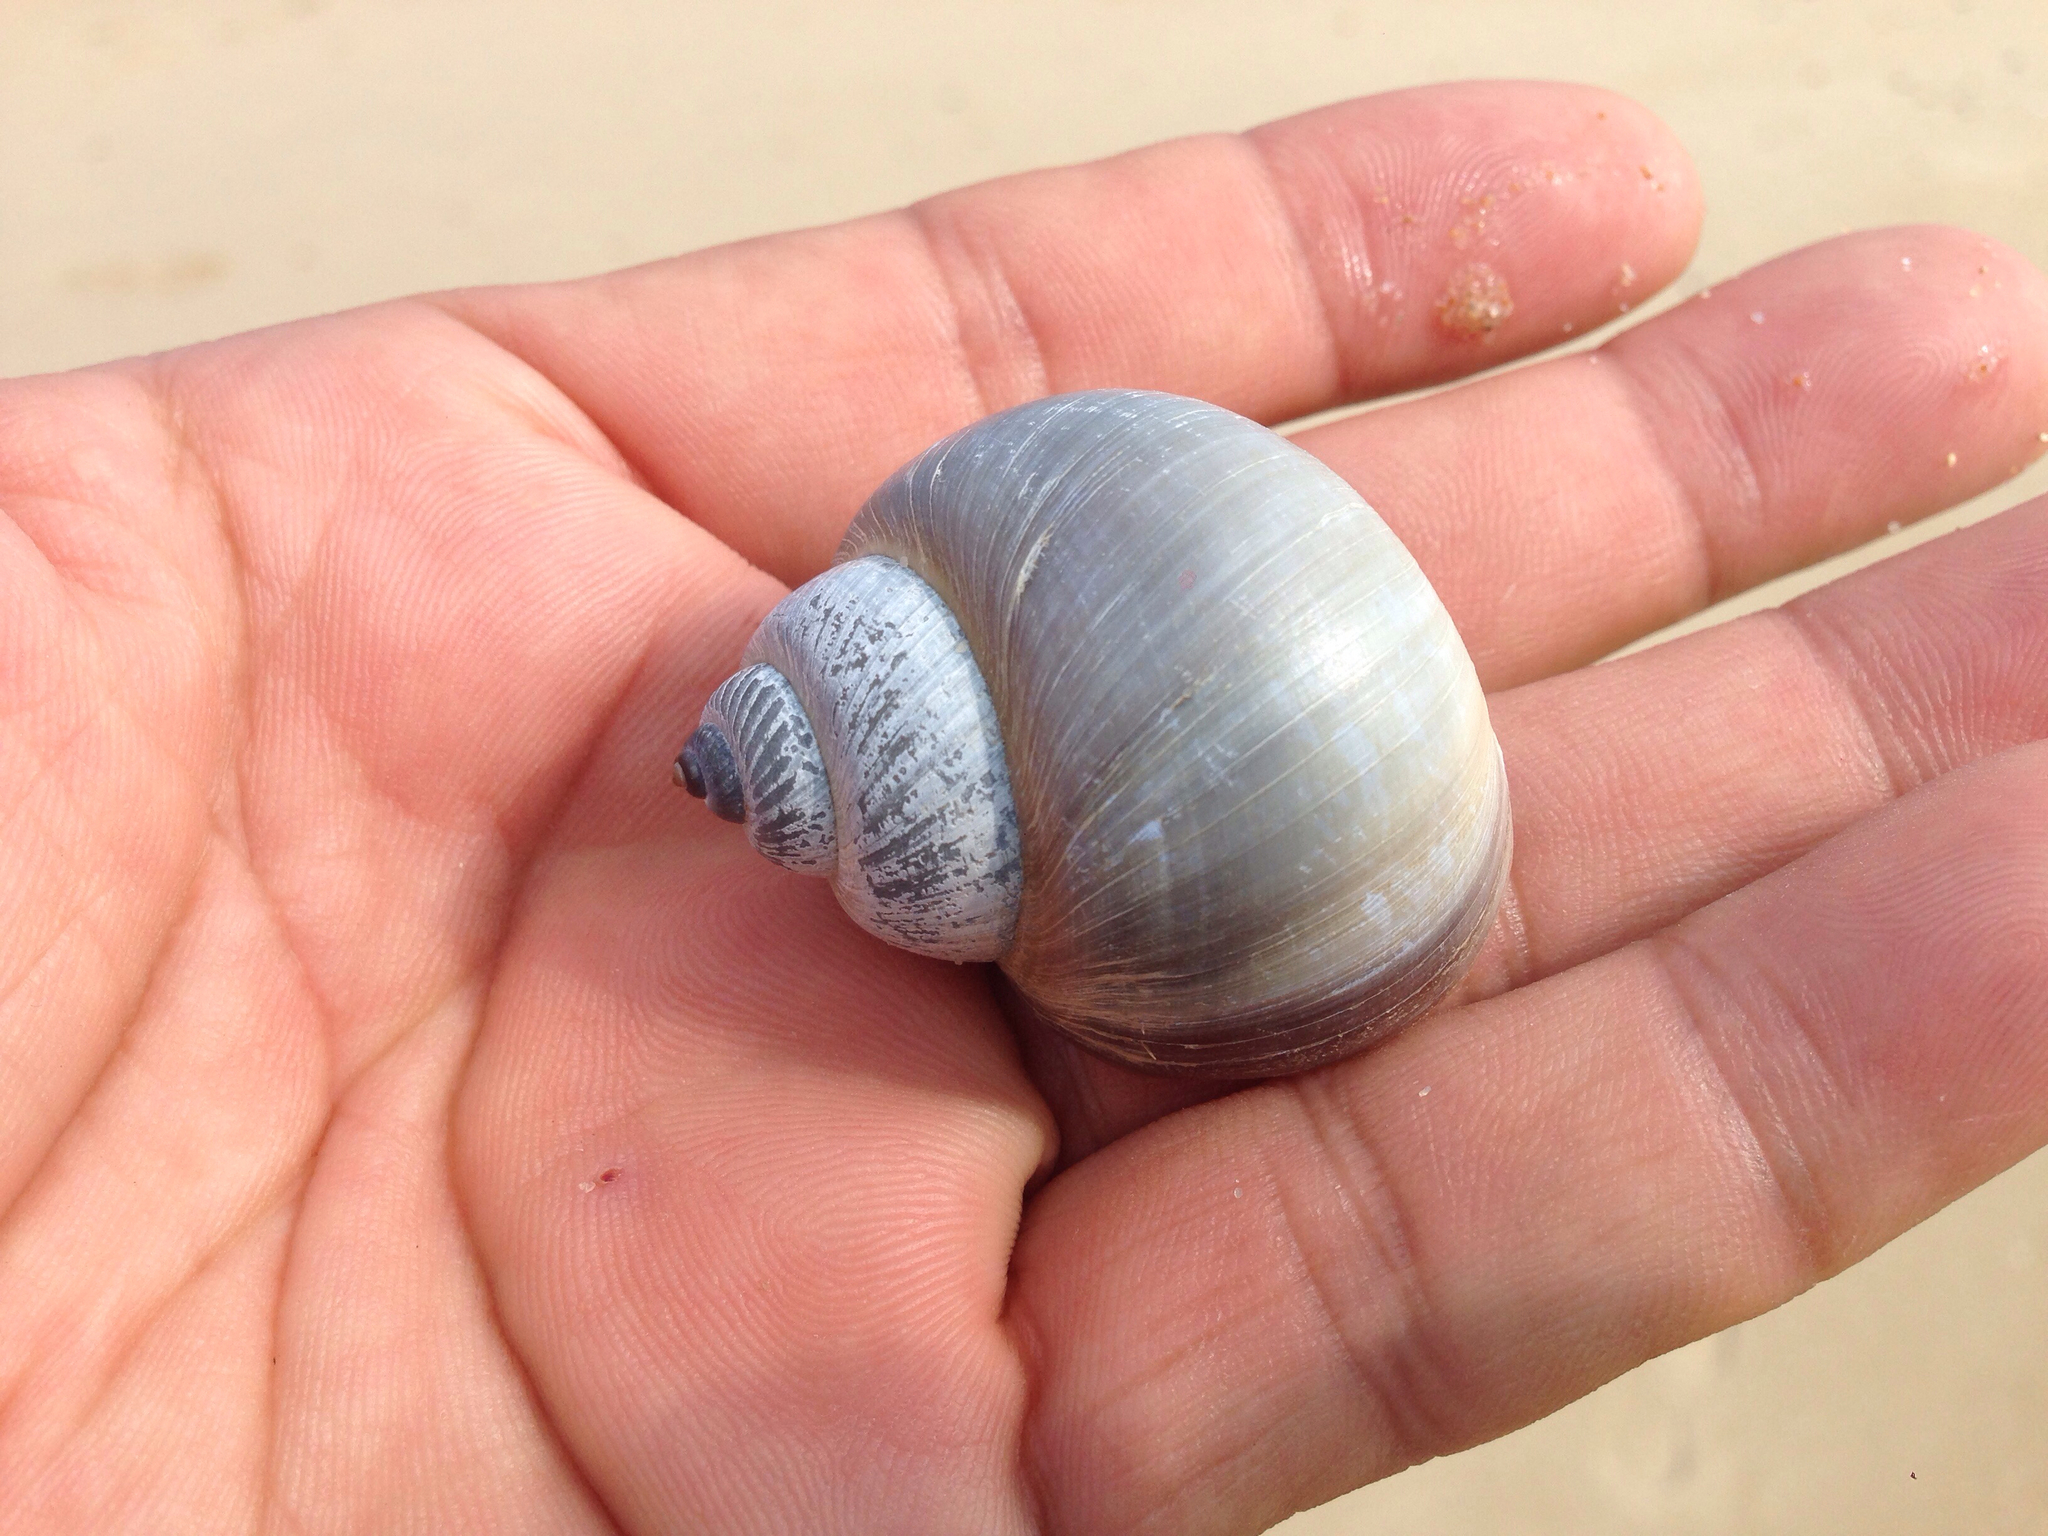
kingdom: Animalia
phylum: Mollusca
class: Gastropoda
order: Littorinimorpha
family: Naticidae
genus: Laguncula
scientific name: Laguncula pulchella
